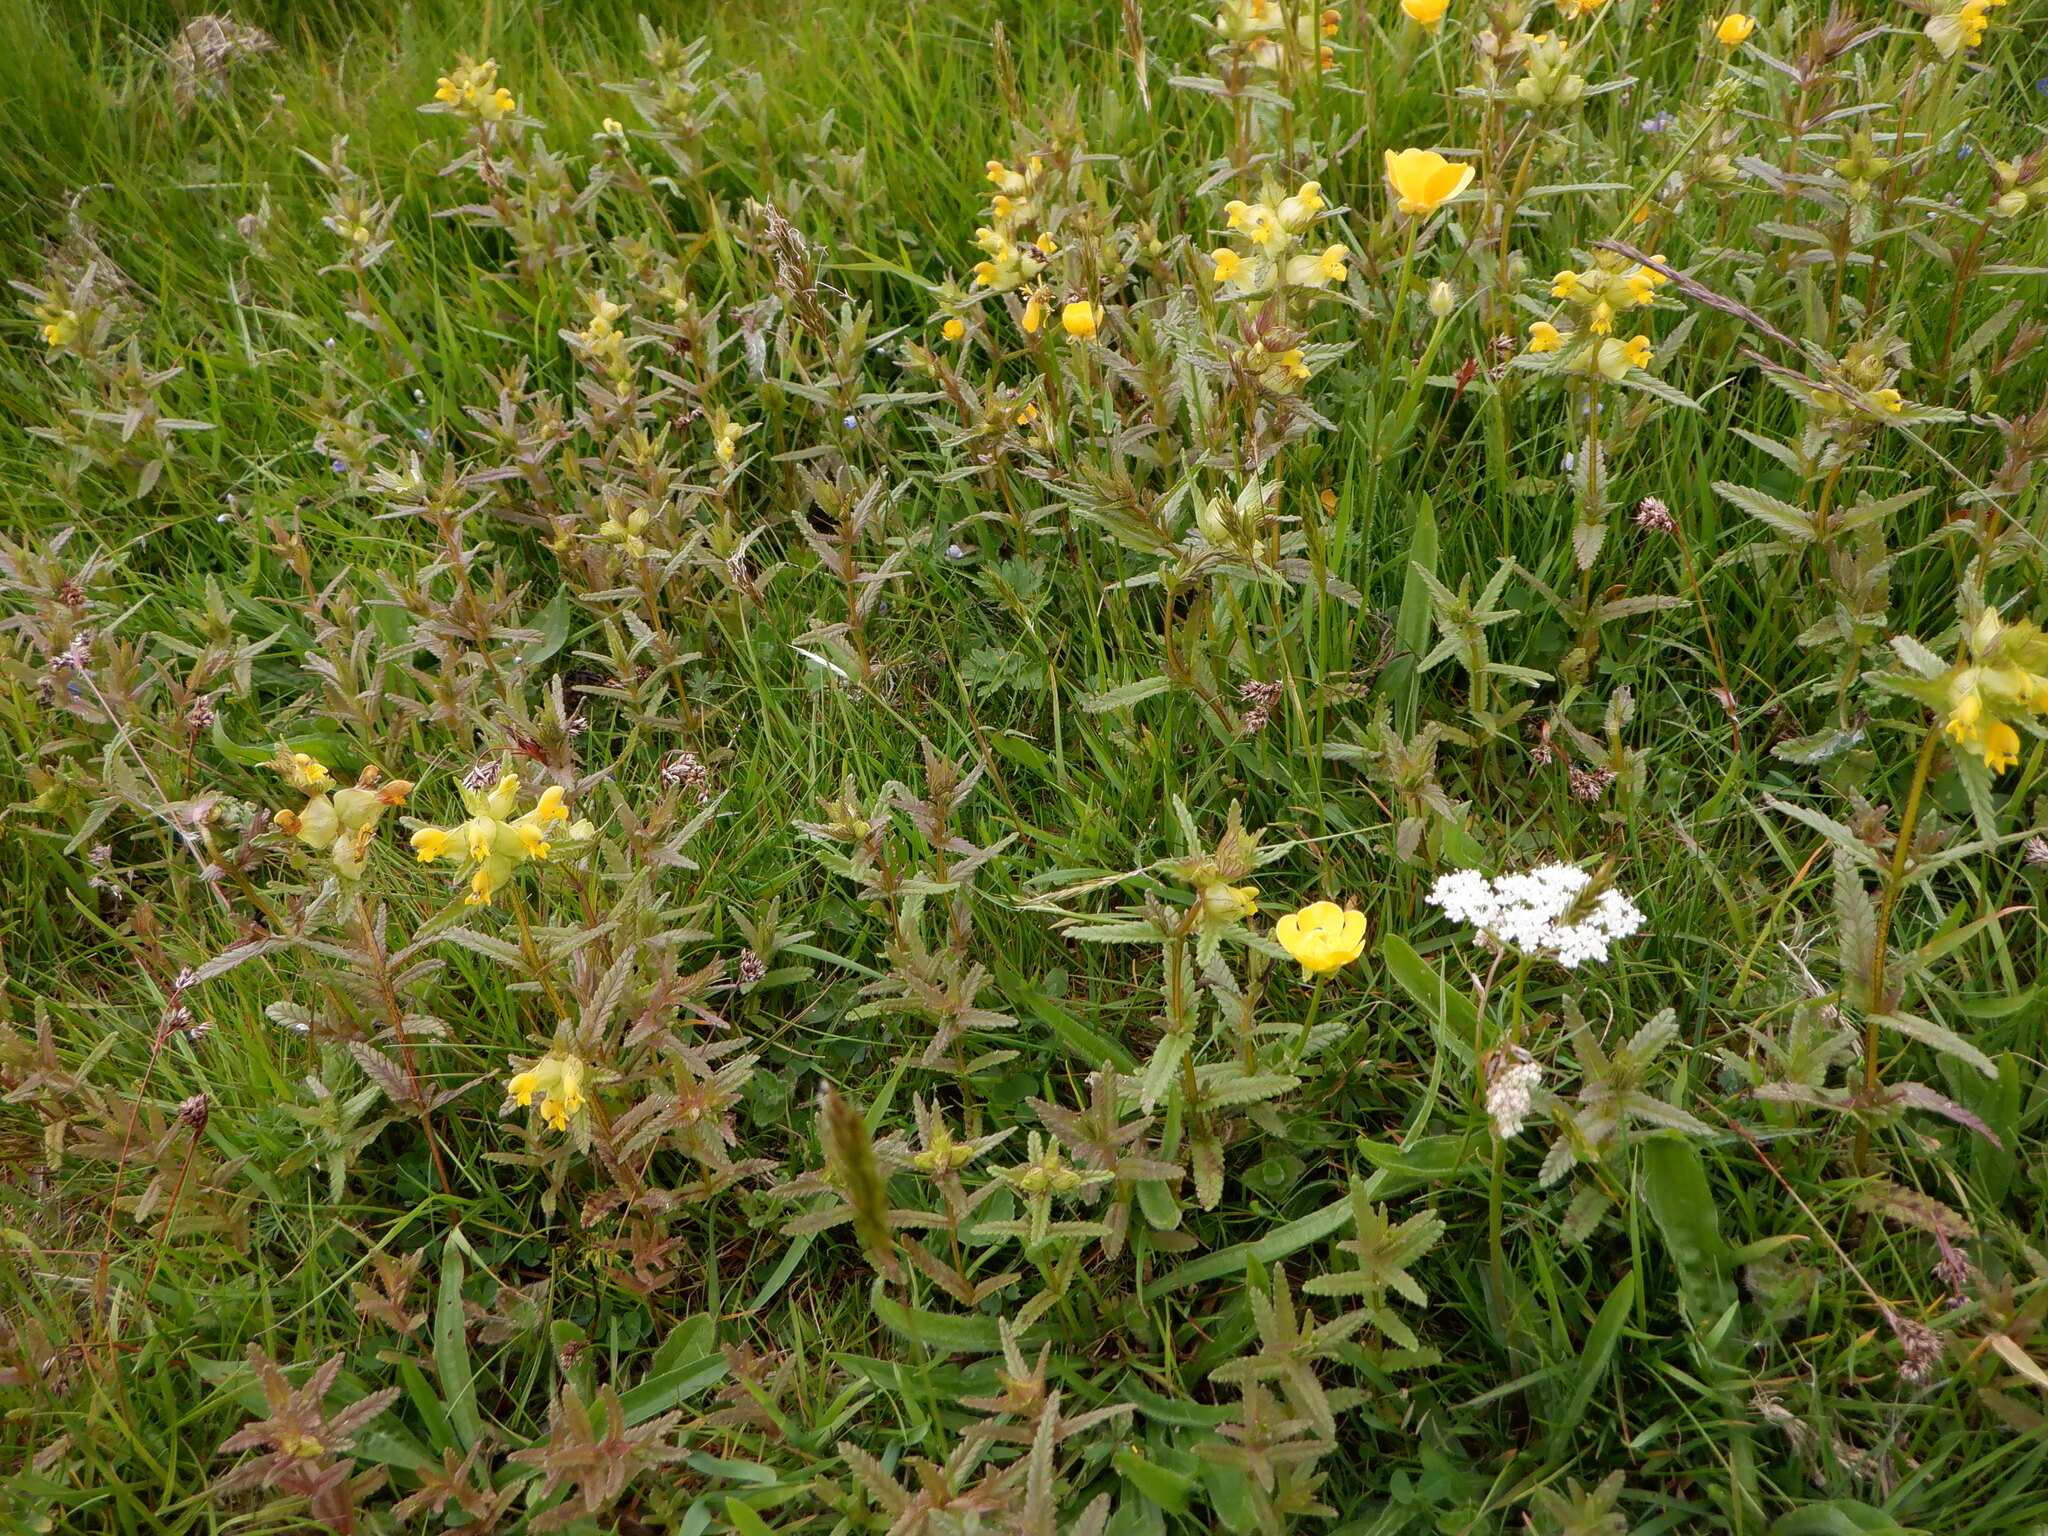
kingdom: Plantae
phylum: Tracheophyta
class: Magnoliopsida
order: Lamiales
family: Orobanchaceae
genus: Rhinanthus
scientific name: Rhinanthus minor
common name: Yellow-rattle
